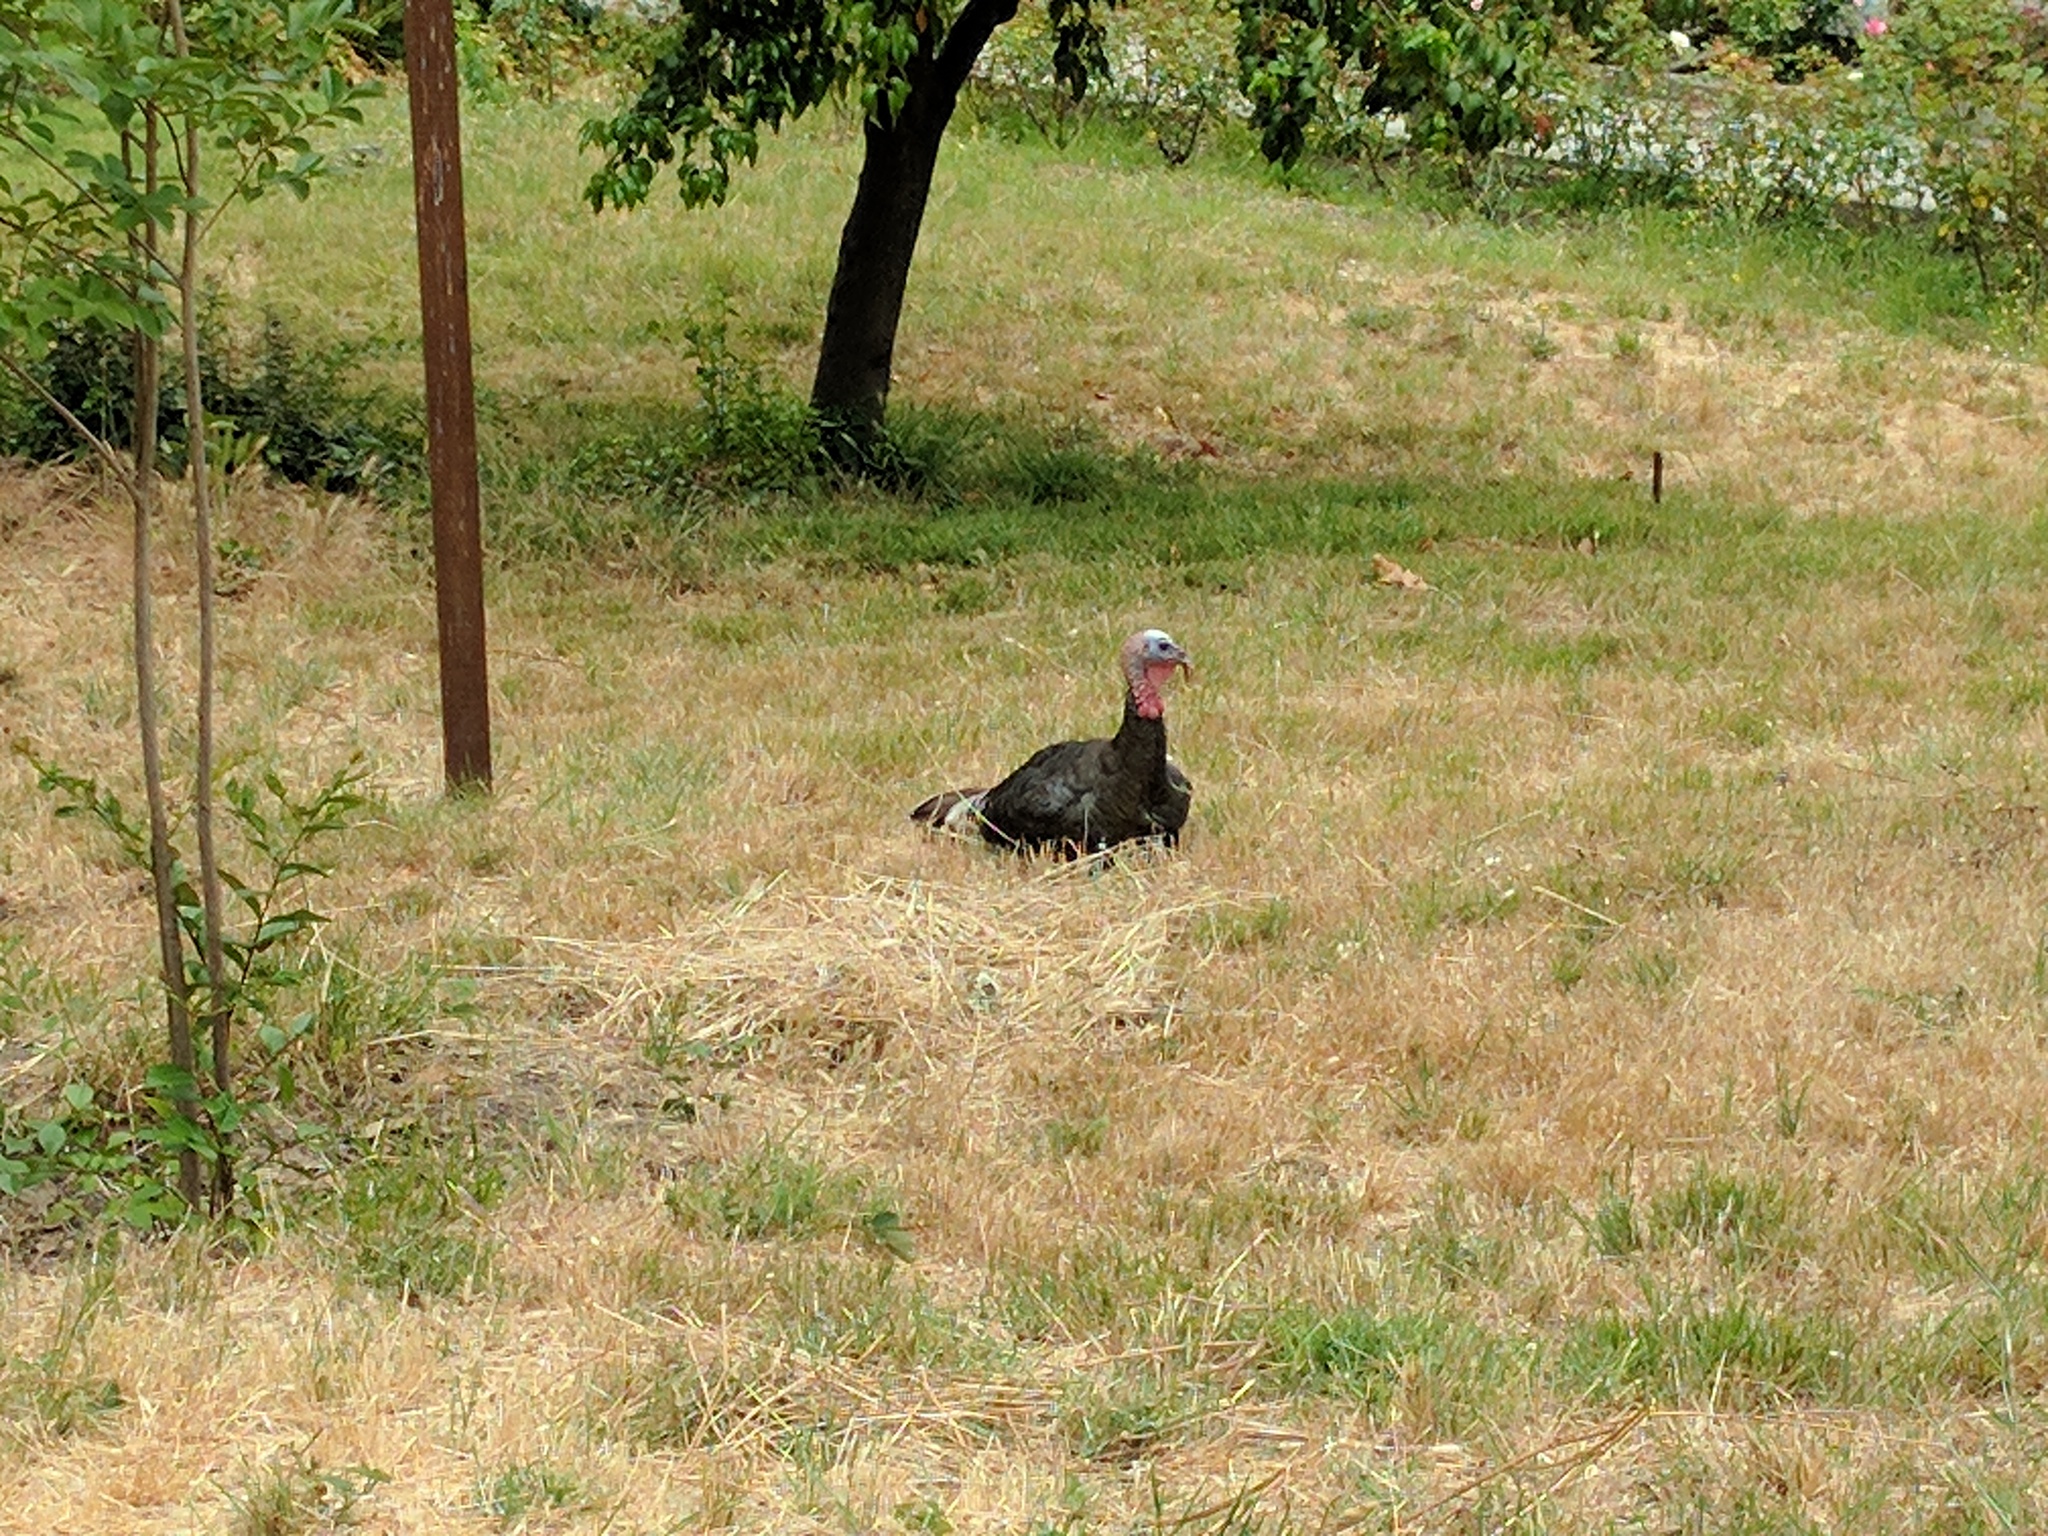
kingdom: Animalia
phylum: Chordata
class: Aves
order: Galliformes
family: Phasianidae
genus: Meleagris
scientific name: Meleagris gallopavo
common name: Wild turkey
